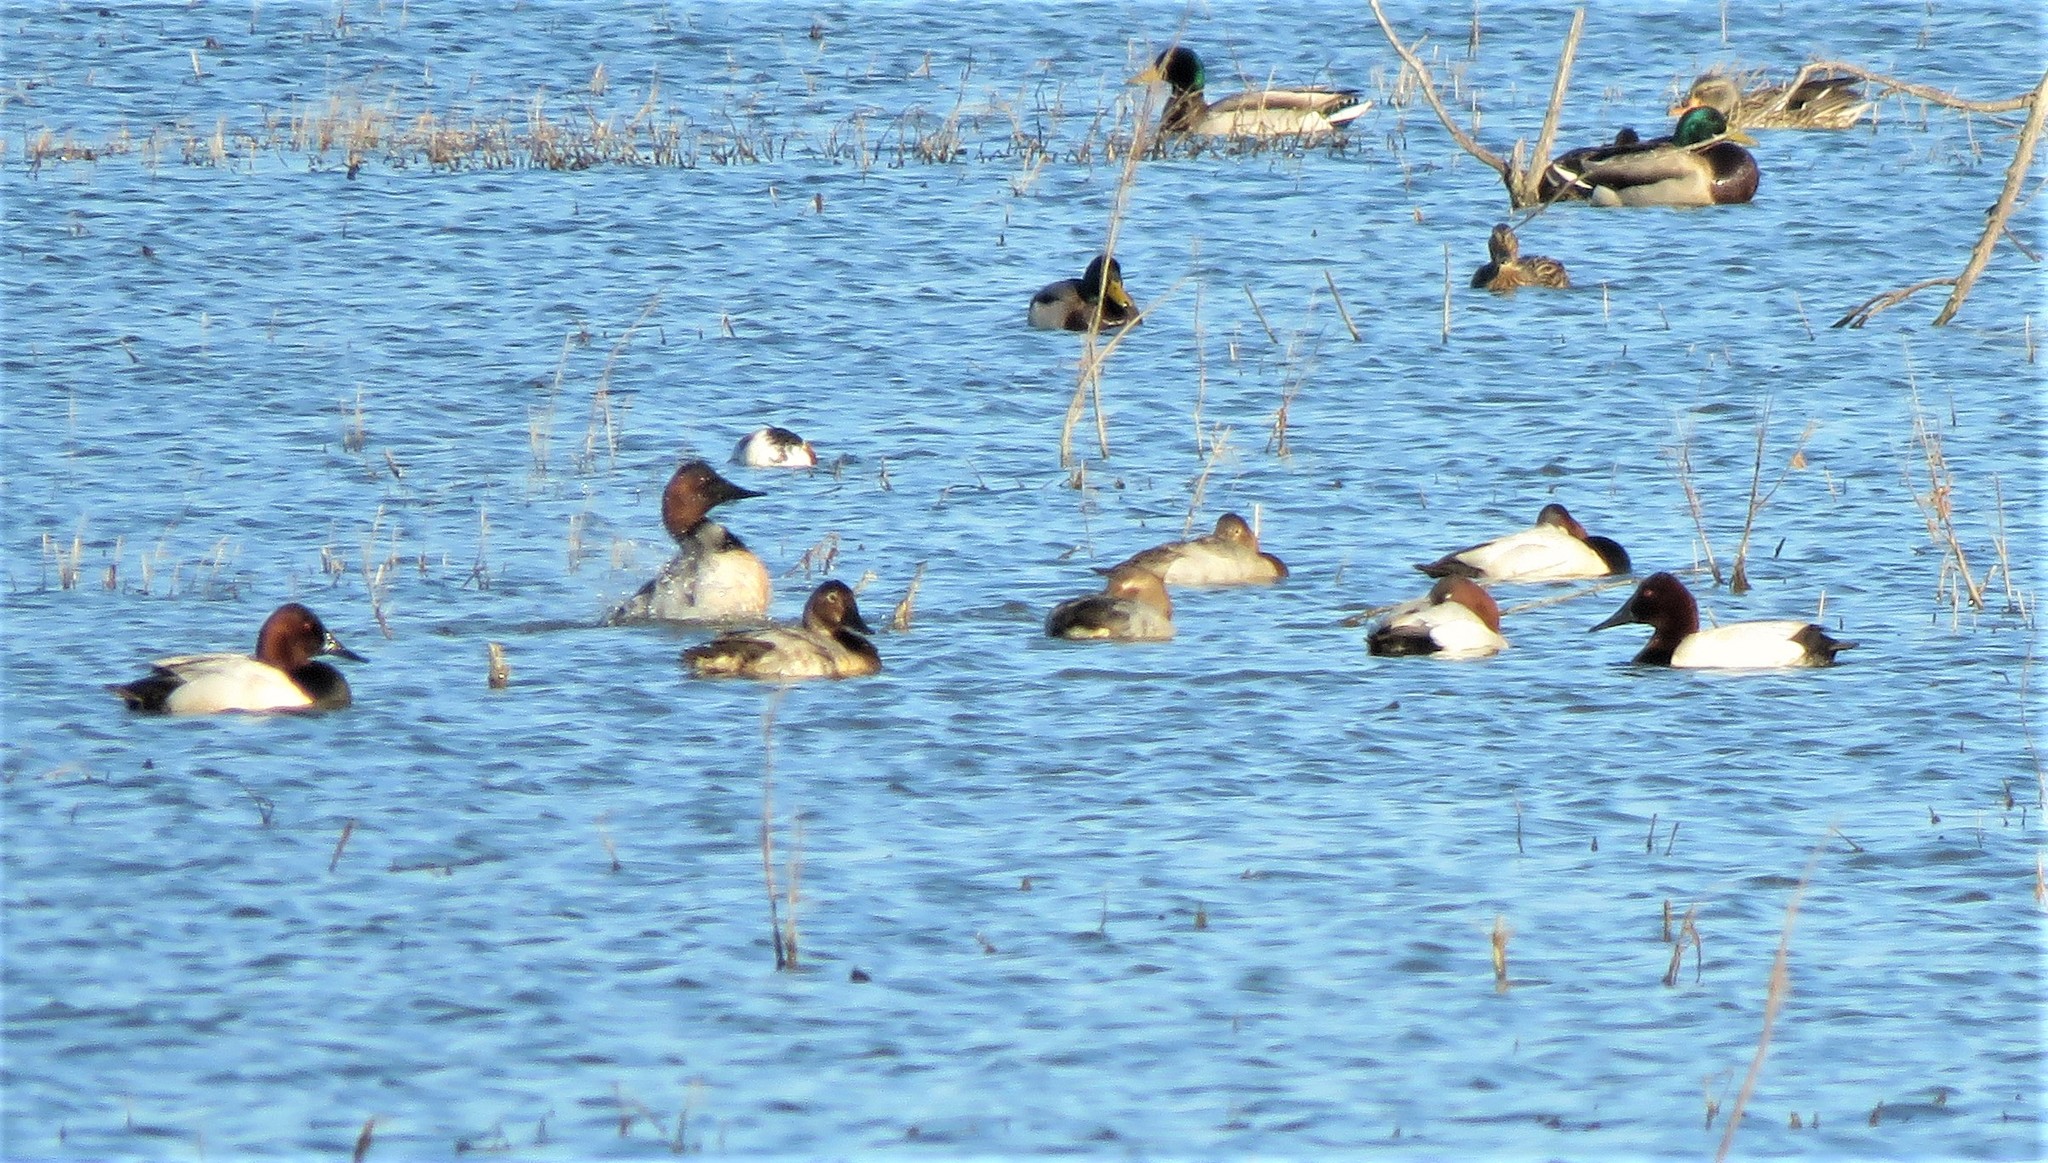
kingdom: Animalia
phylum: Chordata
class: Aves
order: Anseriformes
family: Anatidae
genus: Aythya
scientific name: Aythya valisineria
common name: Canvasback
